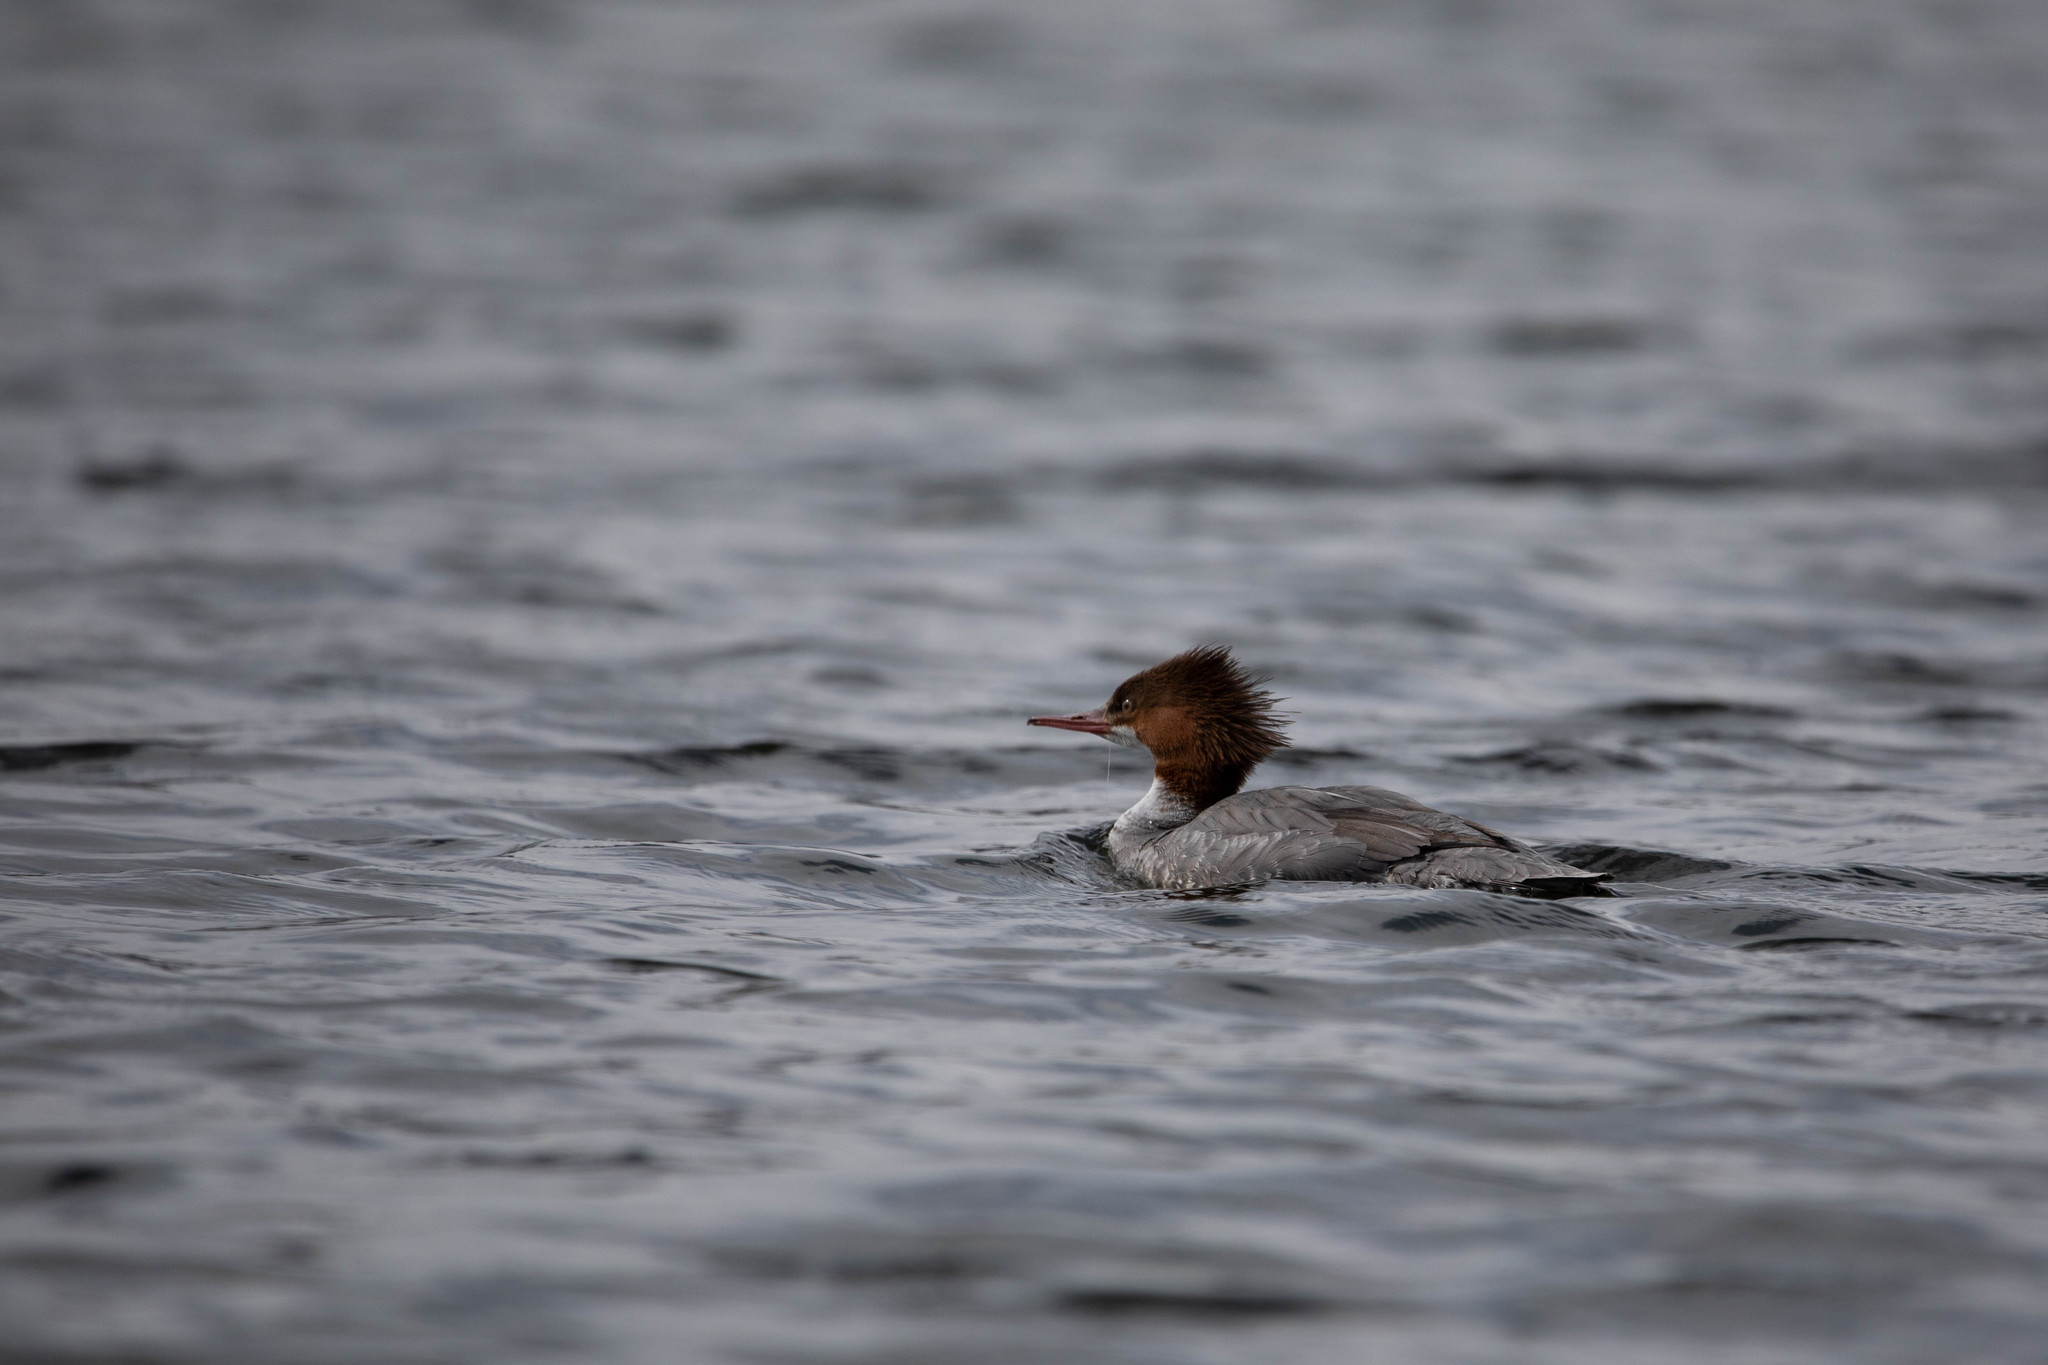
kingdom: Animalia
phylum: Chordata
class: Aves
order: Anseriformes
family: Anatidae
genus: Mergus
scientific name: Mergus merganser
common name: Common merganser
